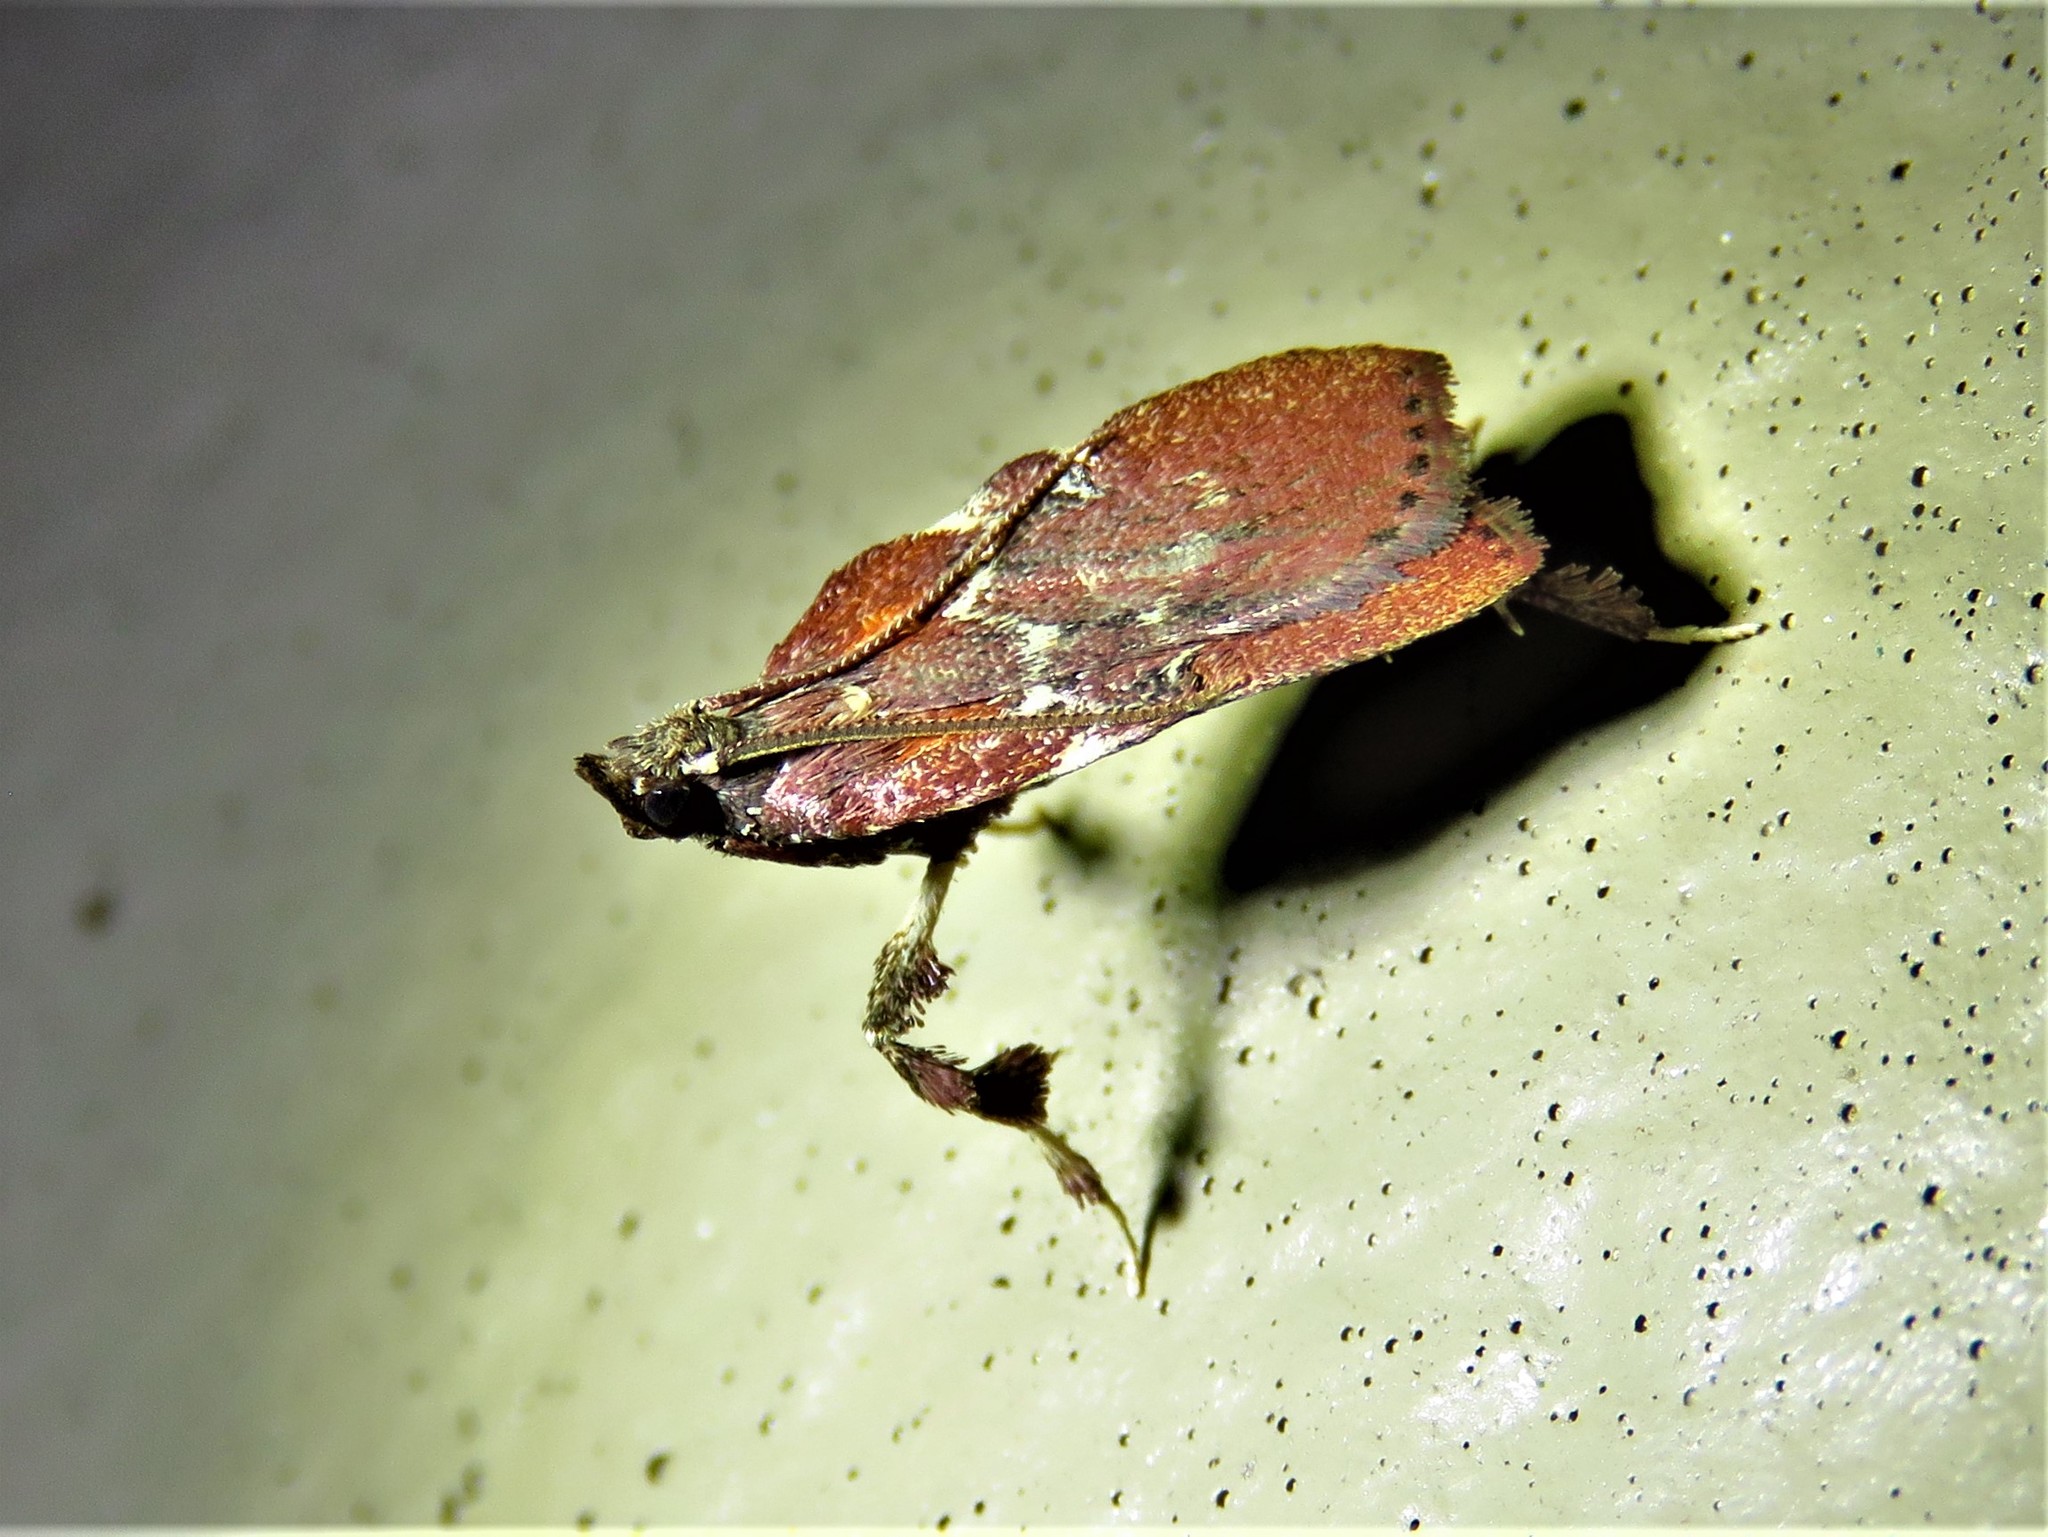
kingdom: Animalia
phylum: Arthropoda
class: Insecta
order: Lepidoptera
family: Pyralidae
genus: Galasa
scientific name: Galasa nigrinodis
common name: Boxwood leaftier moth
